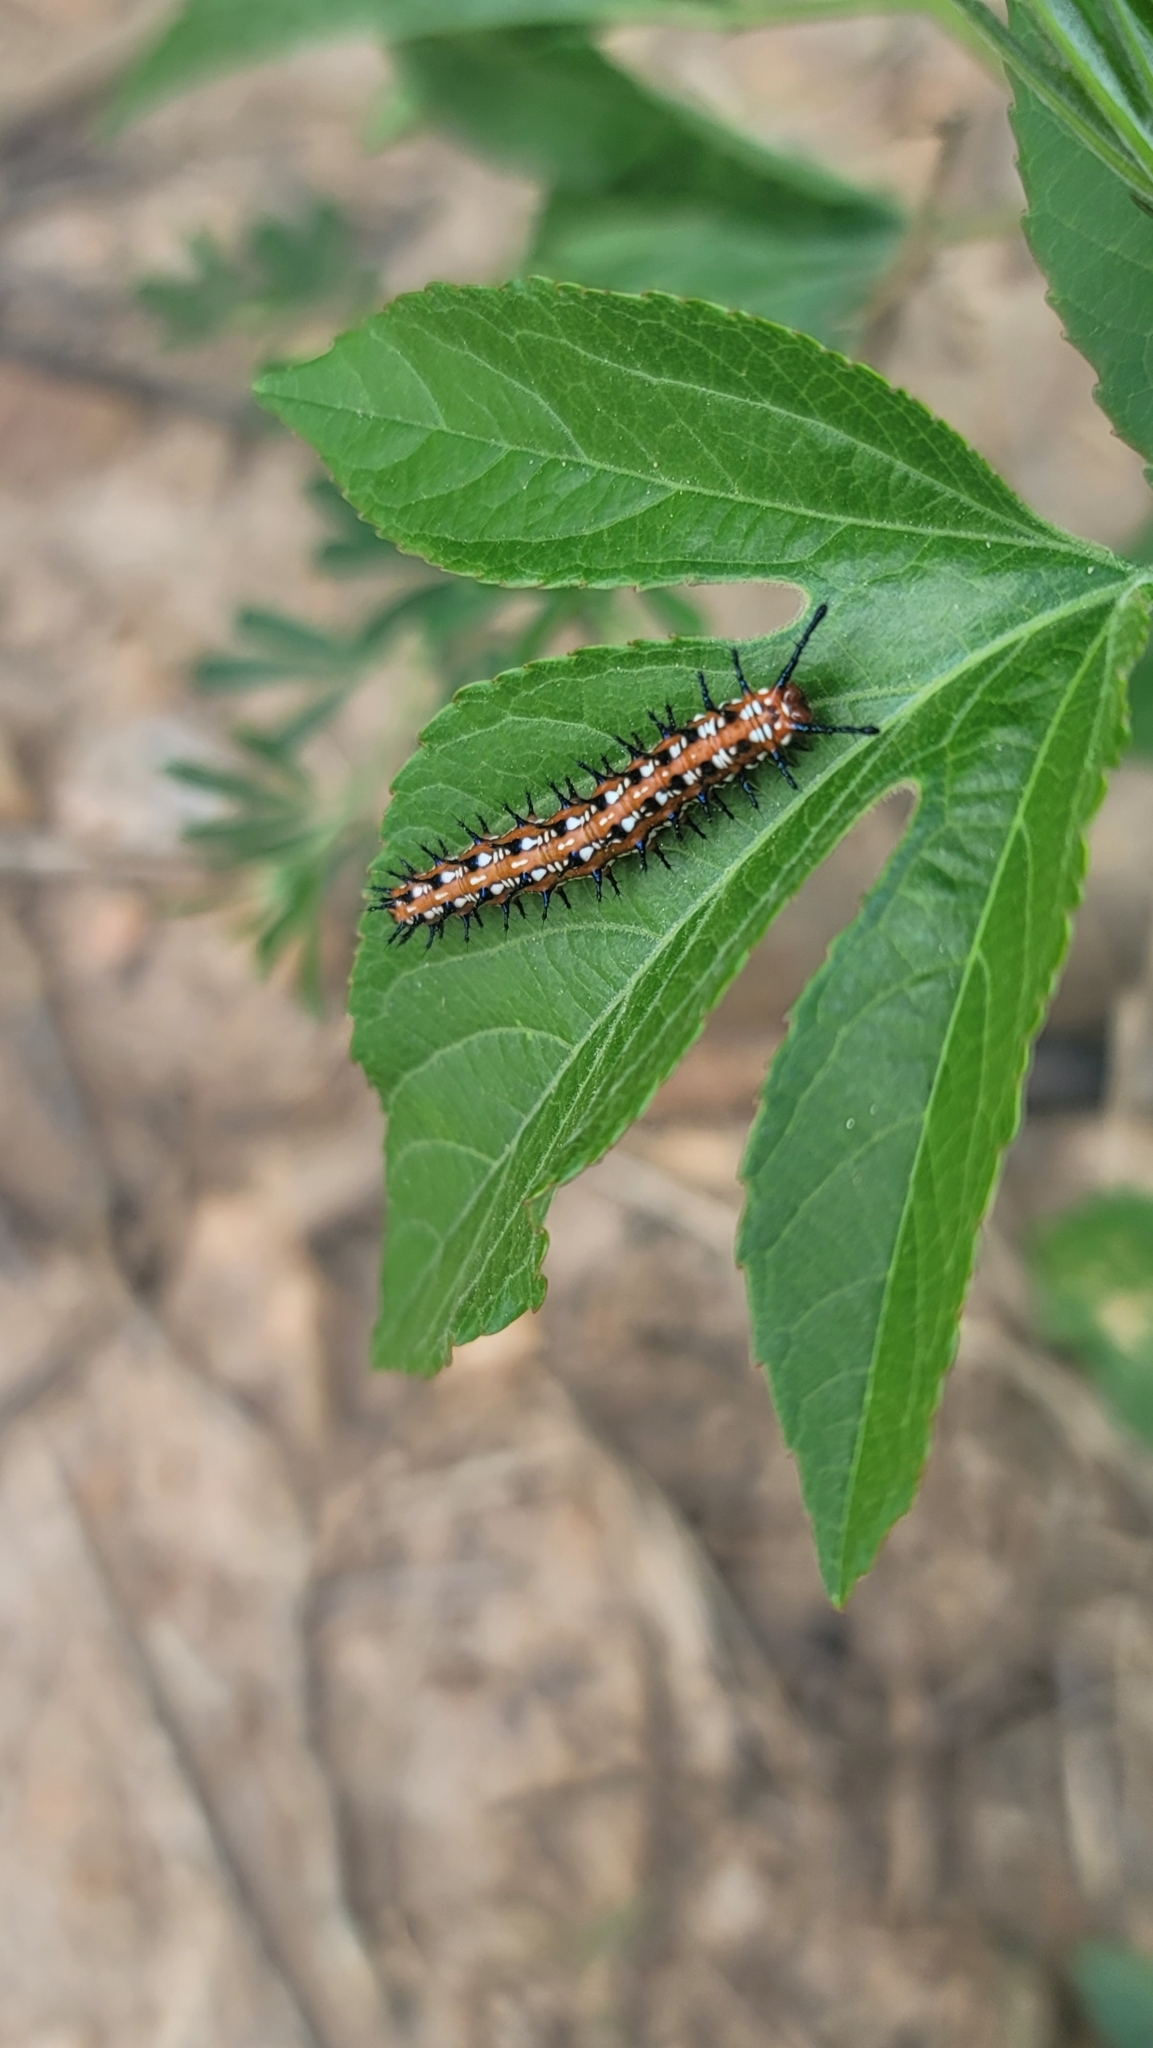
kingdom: Animalia
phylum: Arthropoda
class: Insecta
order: Lepidoptera
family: Nymphalidae
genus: Euptoieta
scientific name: Euptoieta claudia
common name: Variegated fritillary
